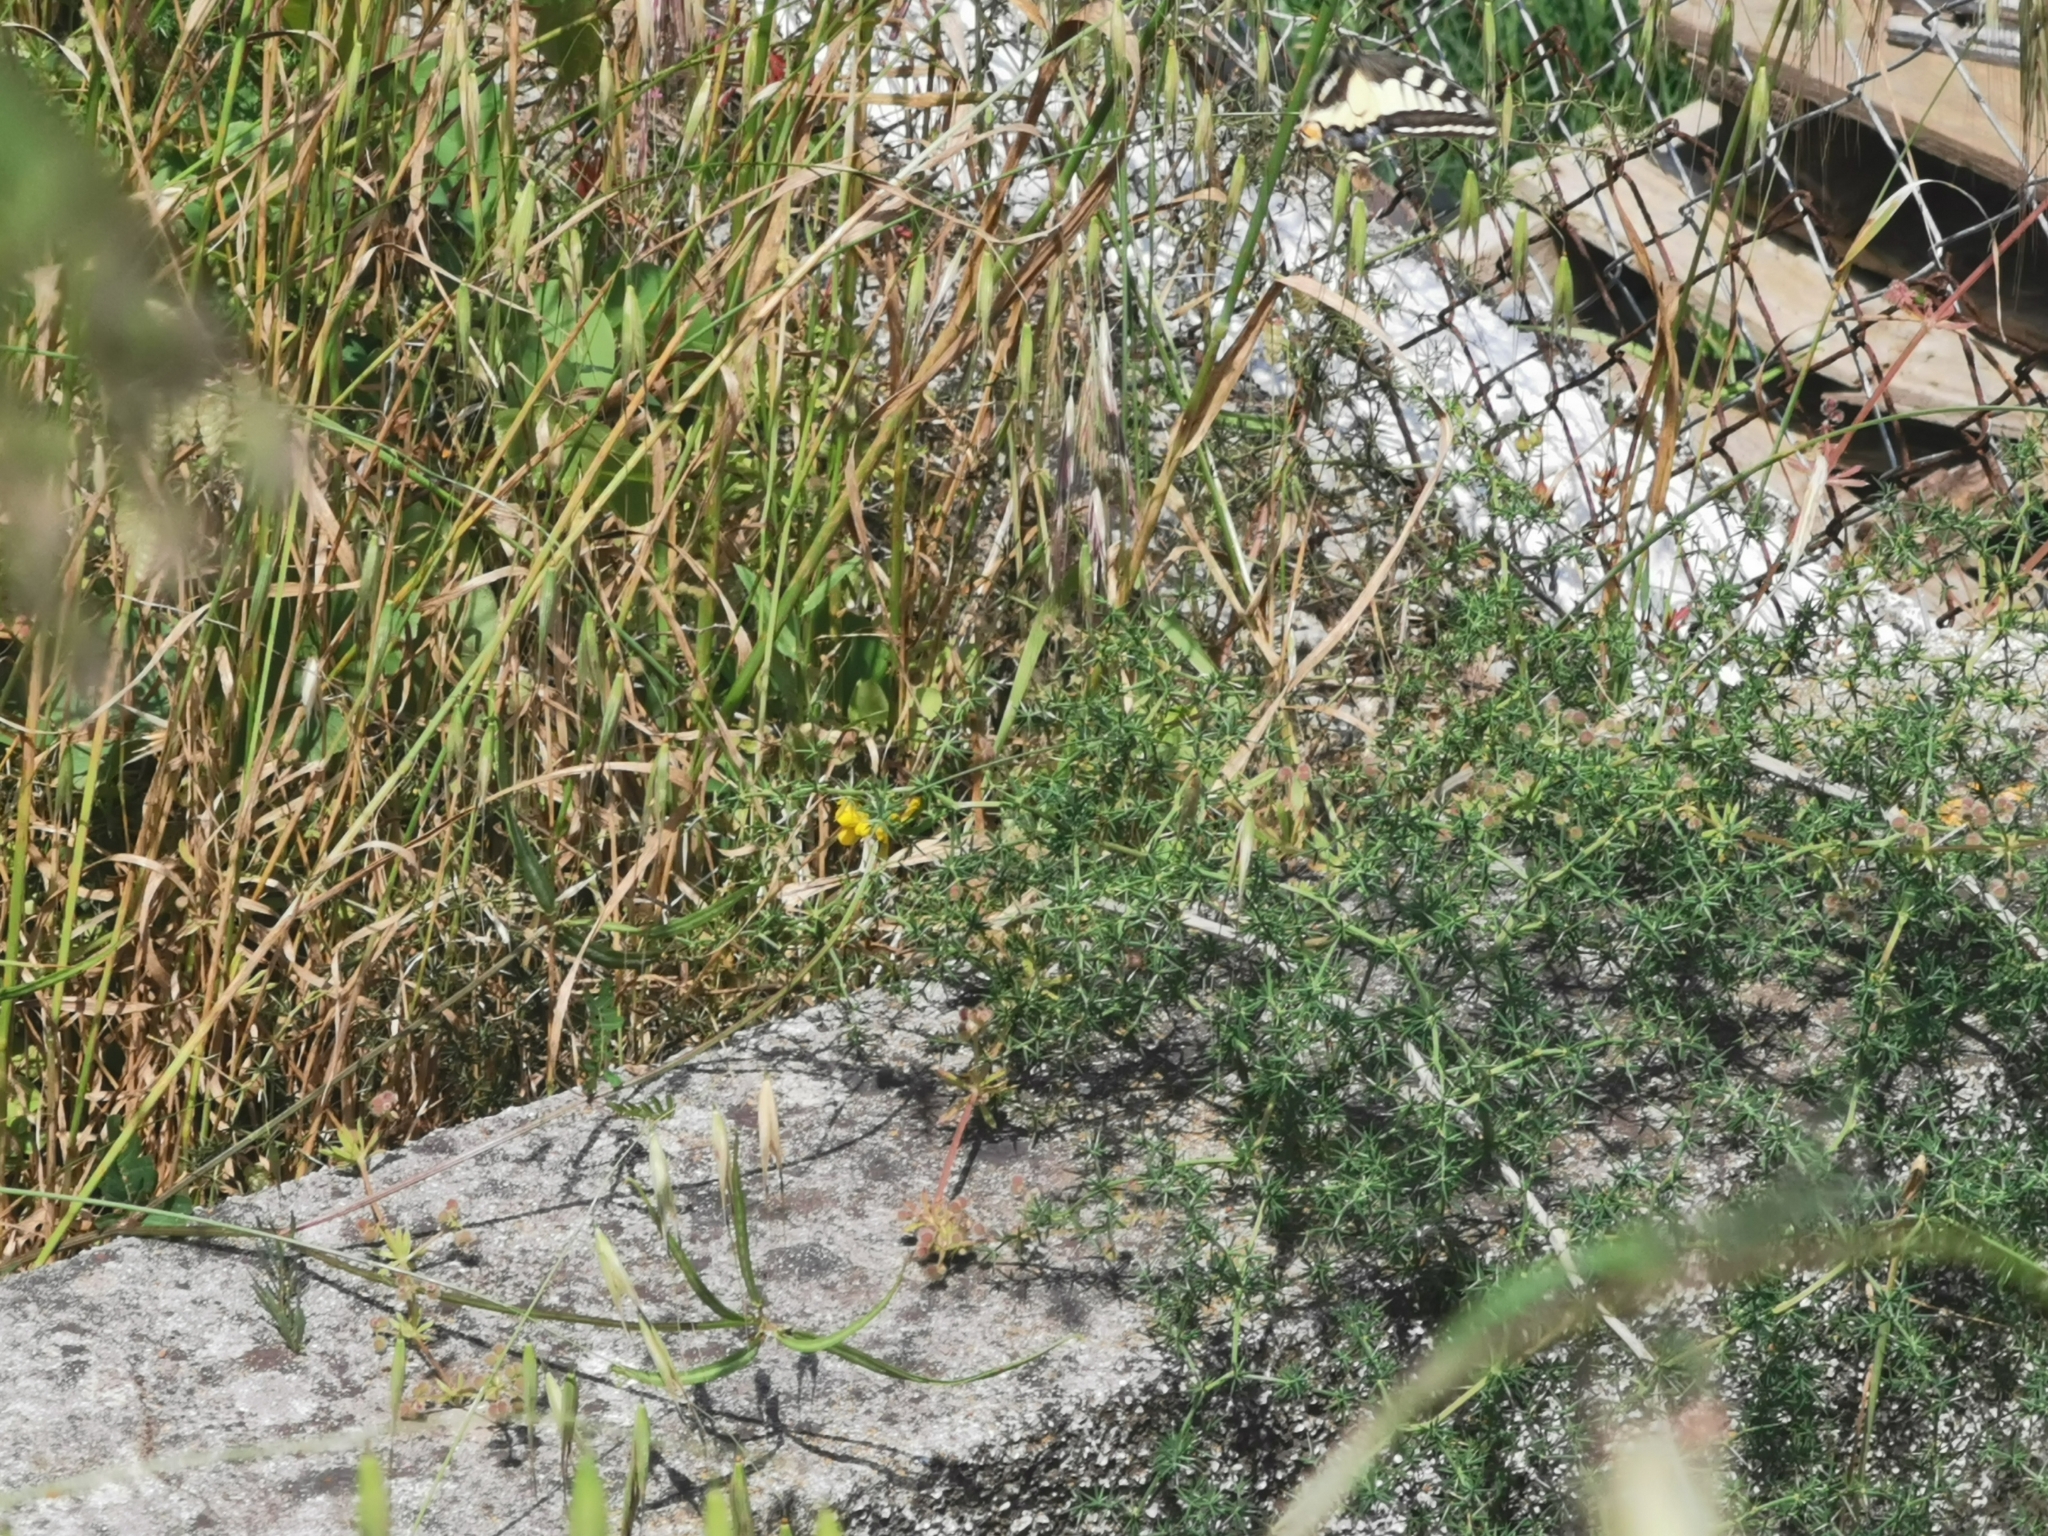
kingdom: Animalia
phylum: Arthropoda
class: Insecta
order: Lepidoptera
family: Papilionidae
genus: Papilio
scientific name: Papilio machaon
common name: Swallowtail
